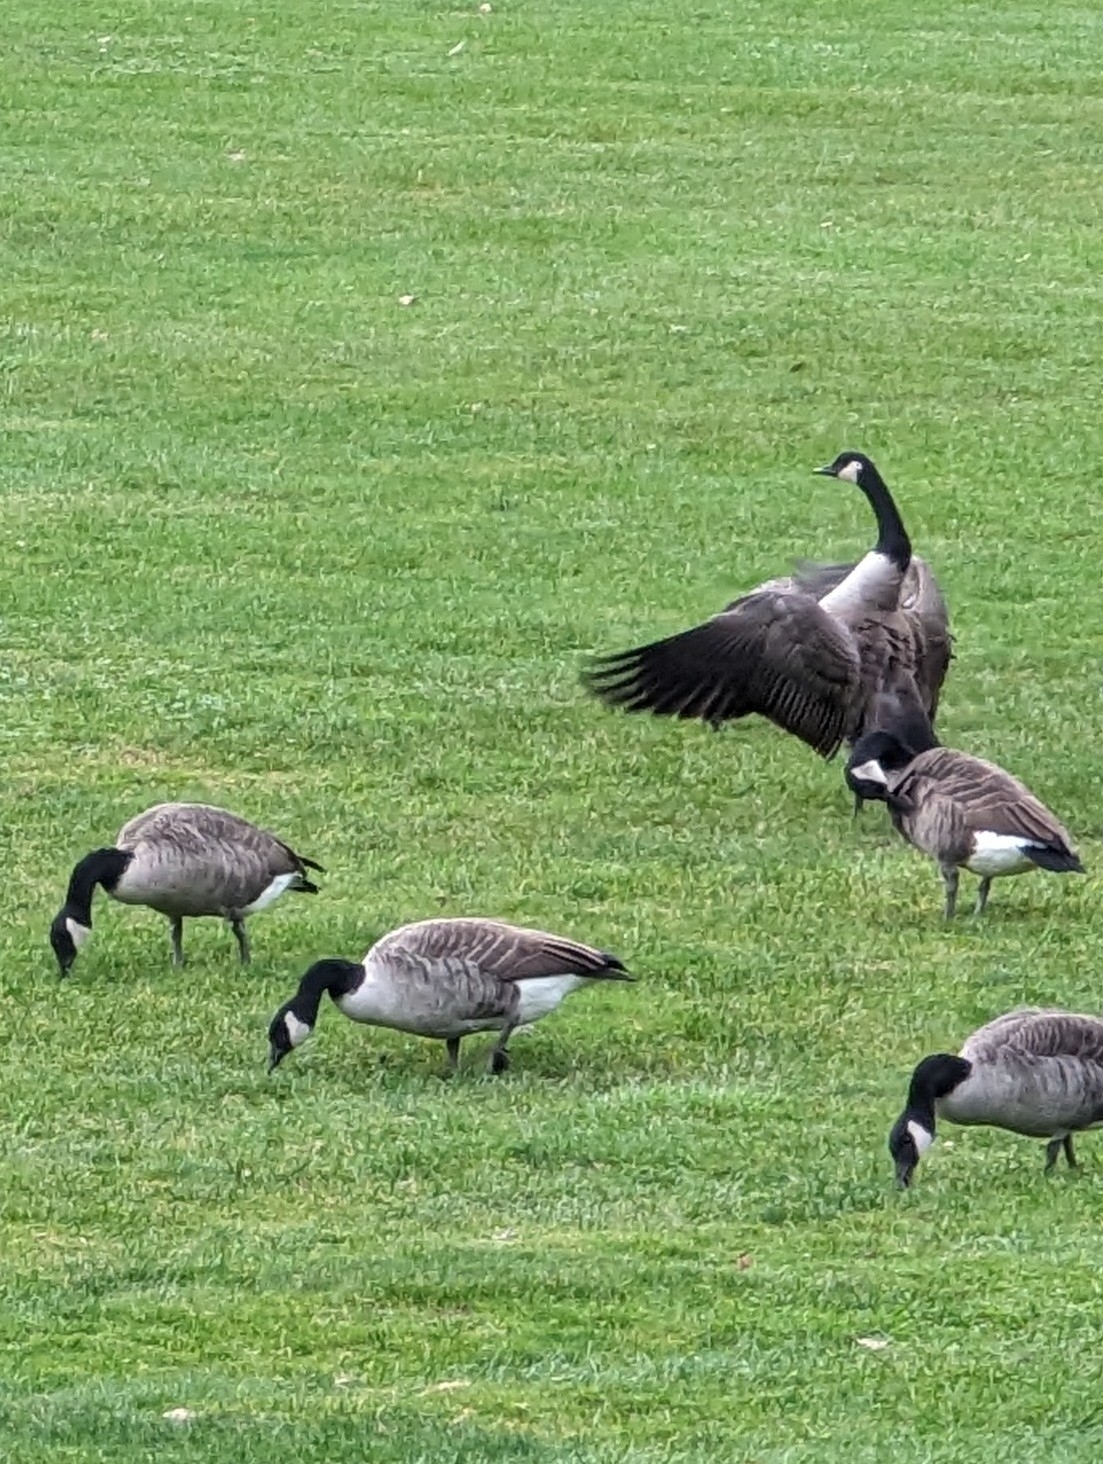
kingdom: Animalia
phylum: Chordata
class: Aves
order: Anseriformes
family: Anatidae
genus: Branta
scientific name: Branta canadensis
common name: Canada goose
